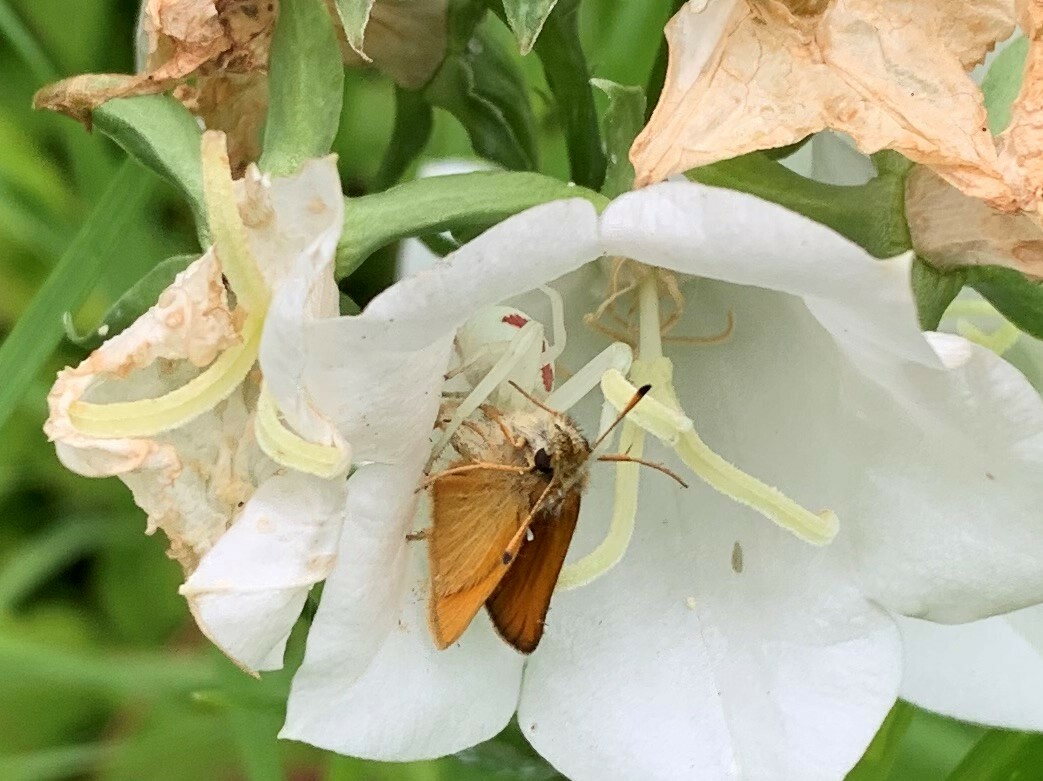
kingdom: Animalia
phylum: Arthropoda
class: Arachnida
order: Araneae
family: Thomisidae
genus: Misumena
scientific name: Misumena vatia
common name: Goldenrod crab spider
